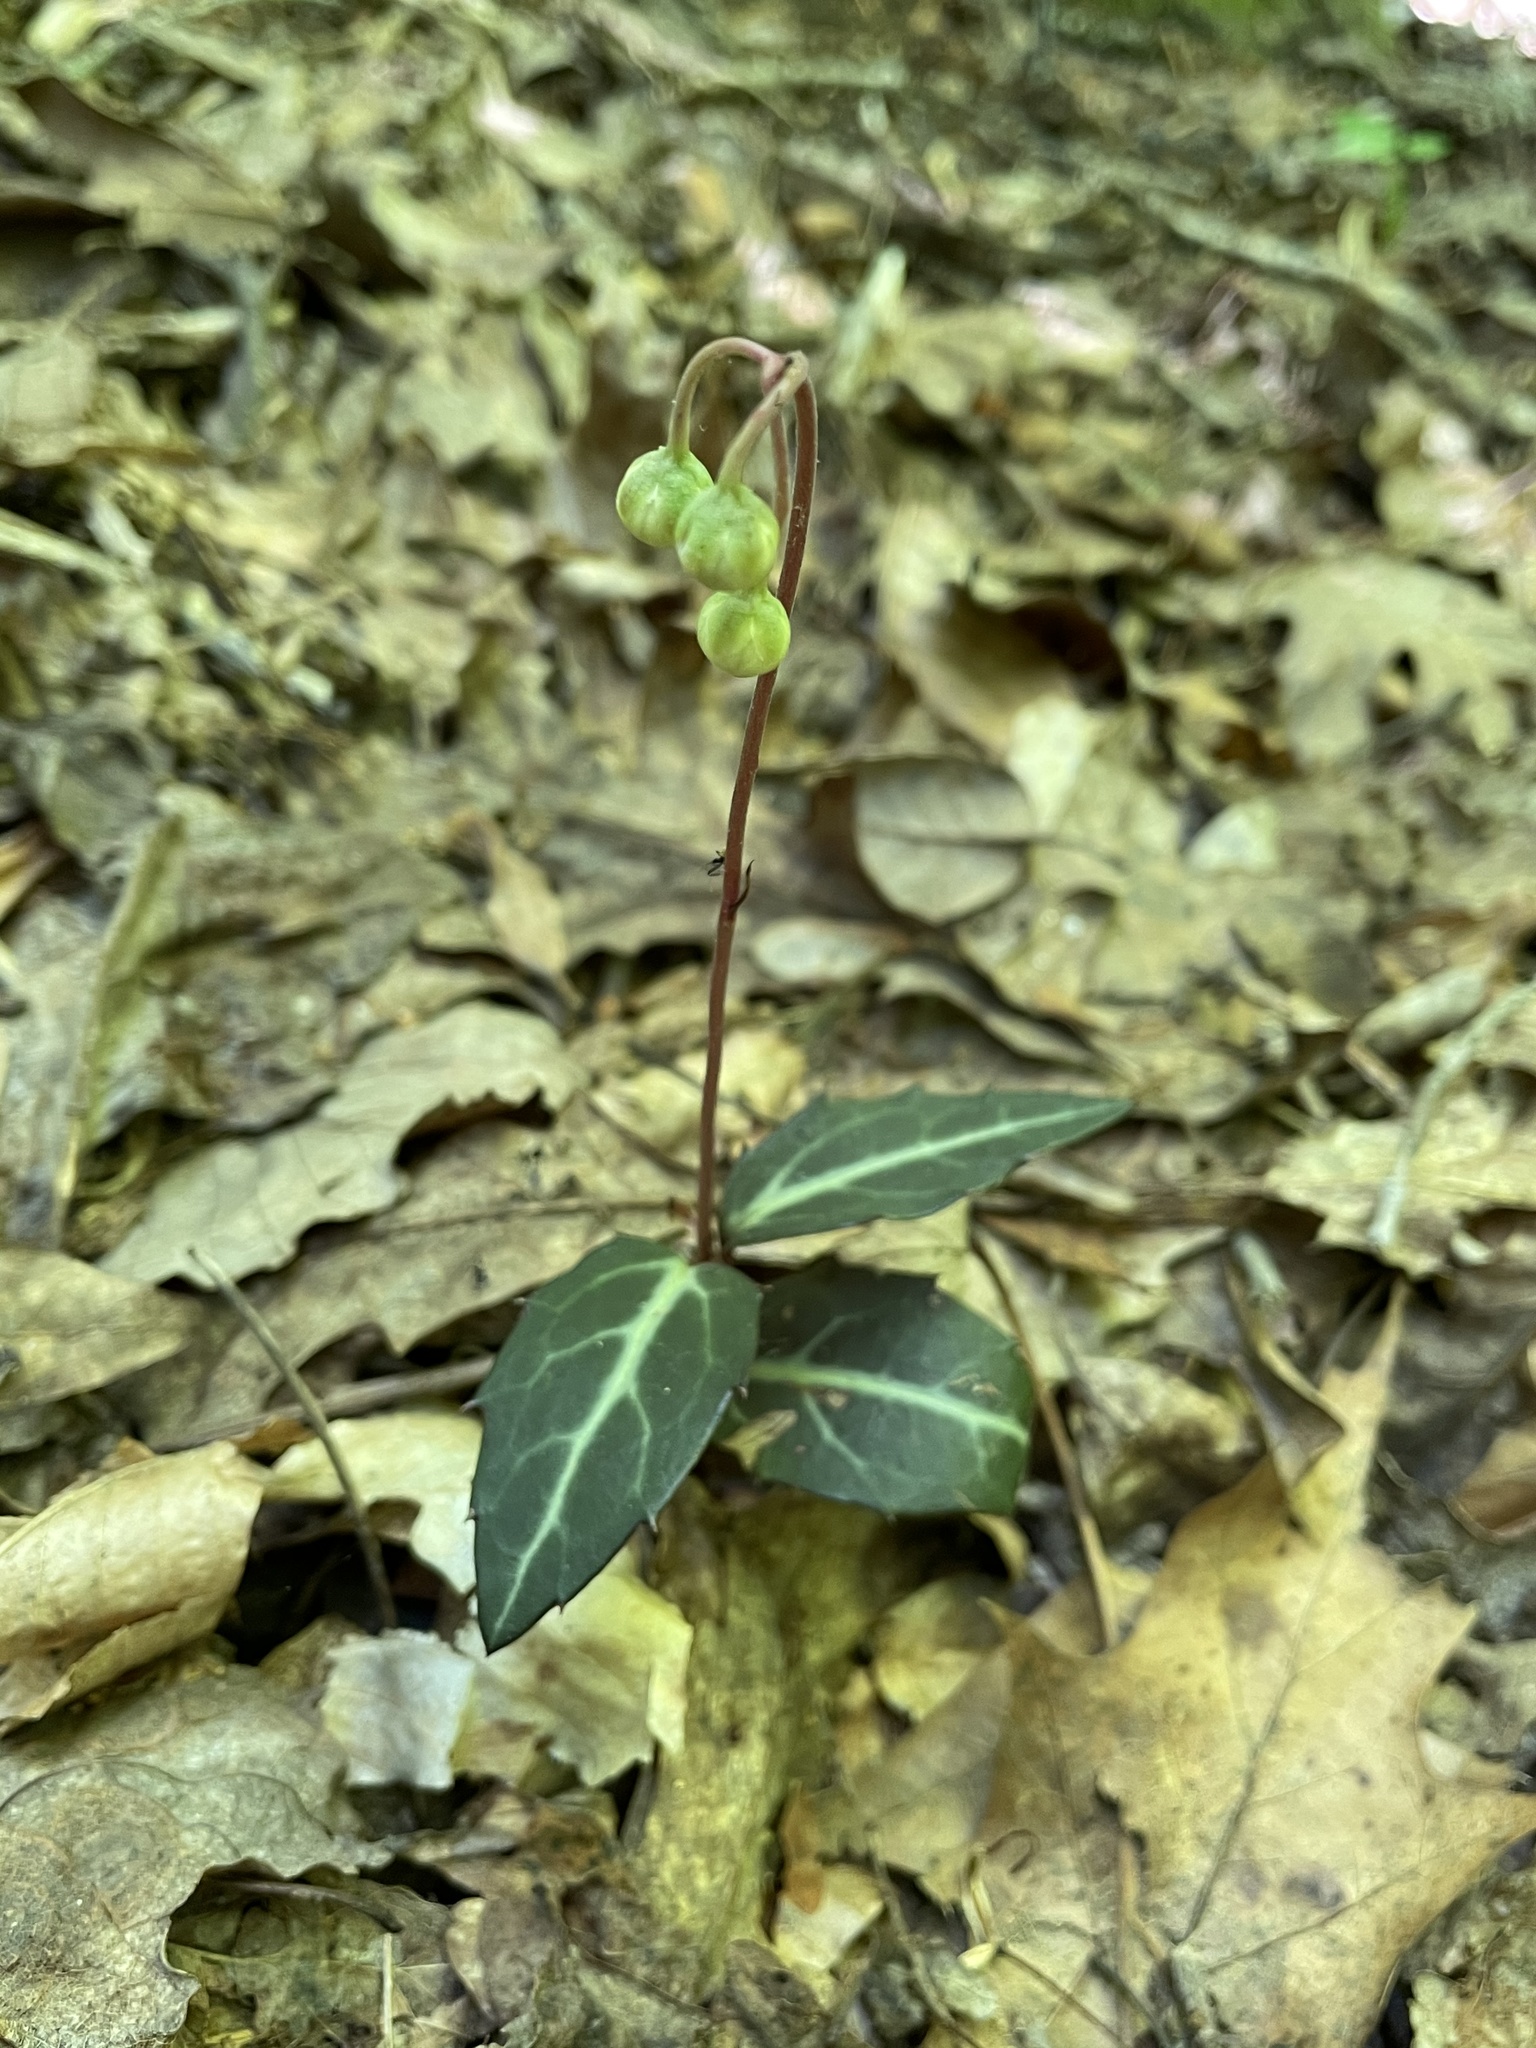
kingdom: Plantae
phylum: Tracheophyta
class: Magnoliopsida
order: Ericales
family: Ericaceae
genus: Chimaphila
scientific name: Chimaphila maculata
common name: Spotted pipsissewa
